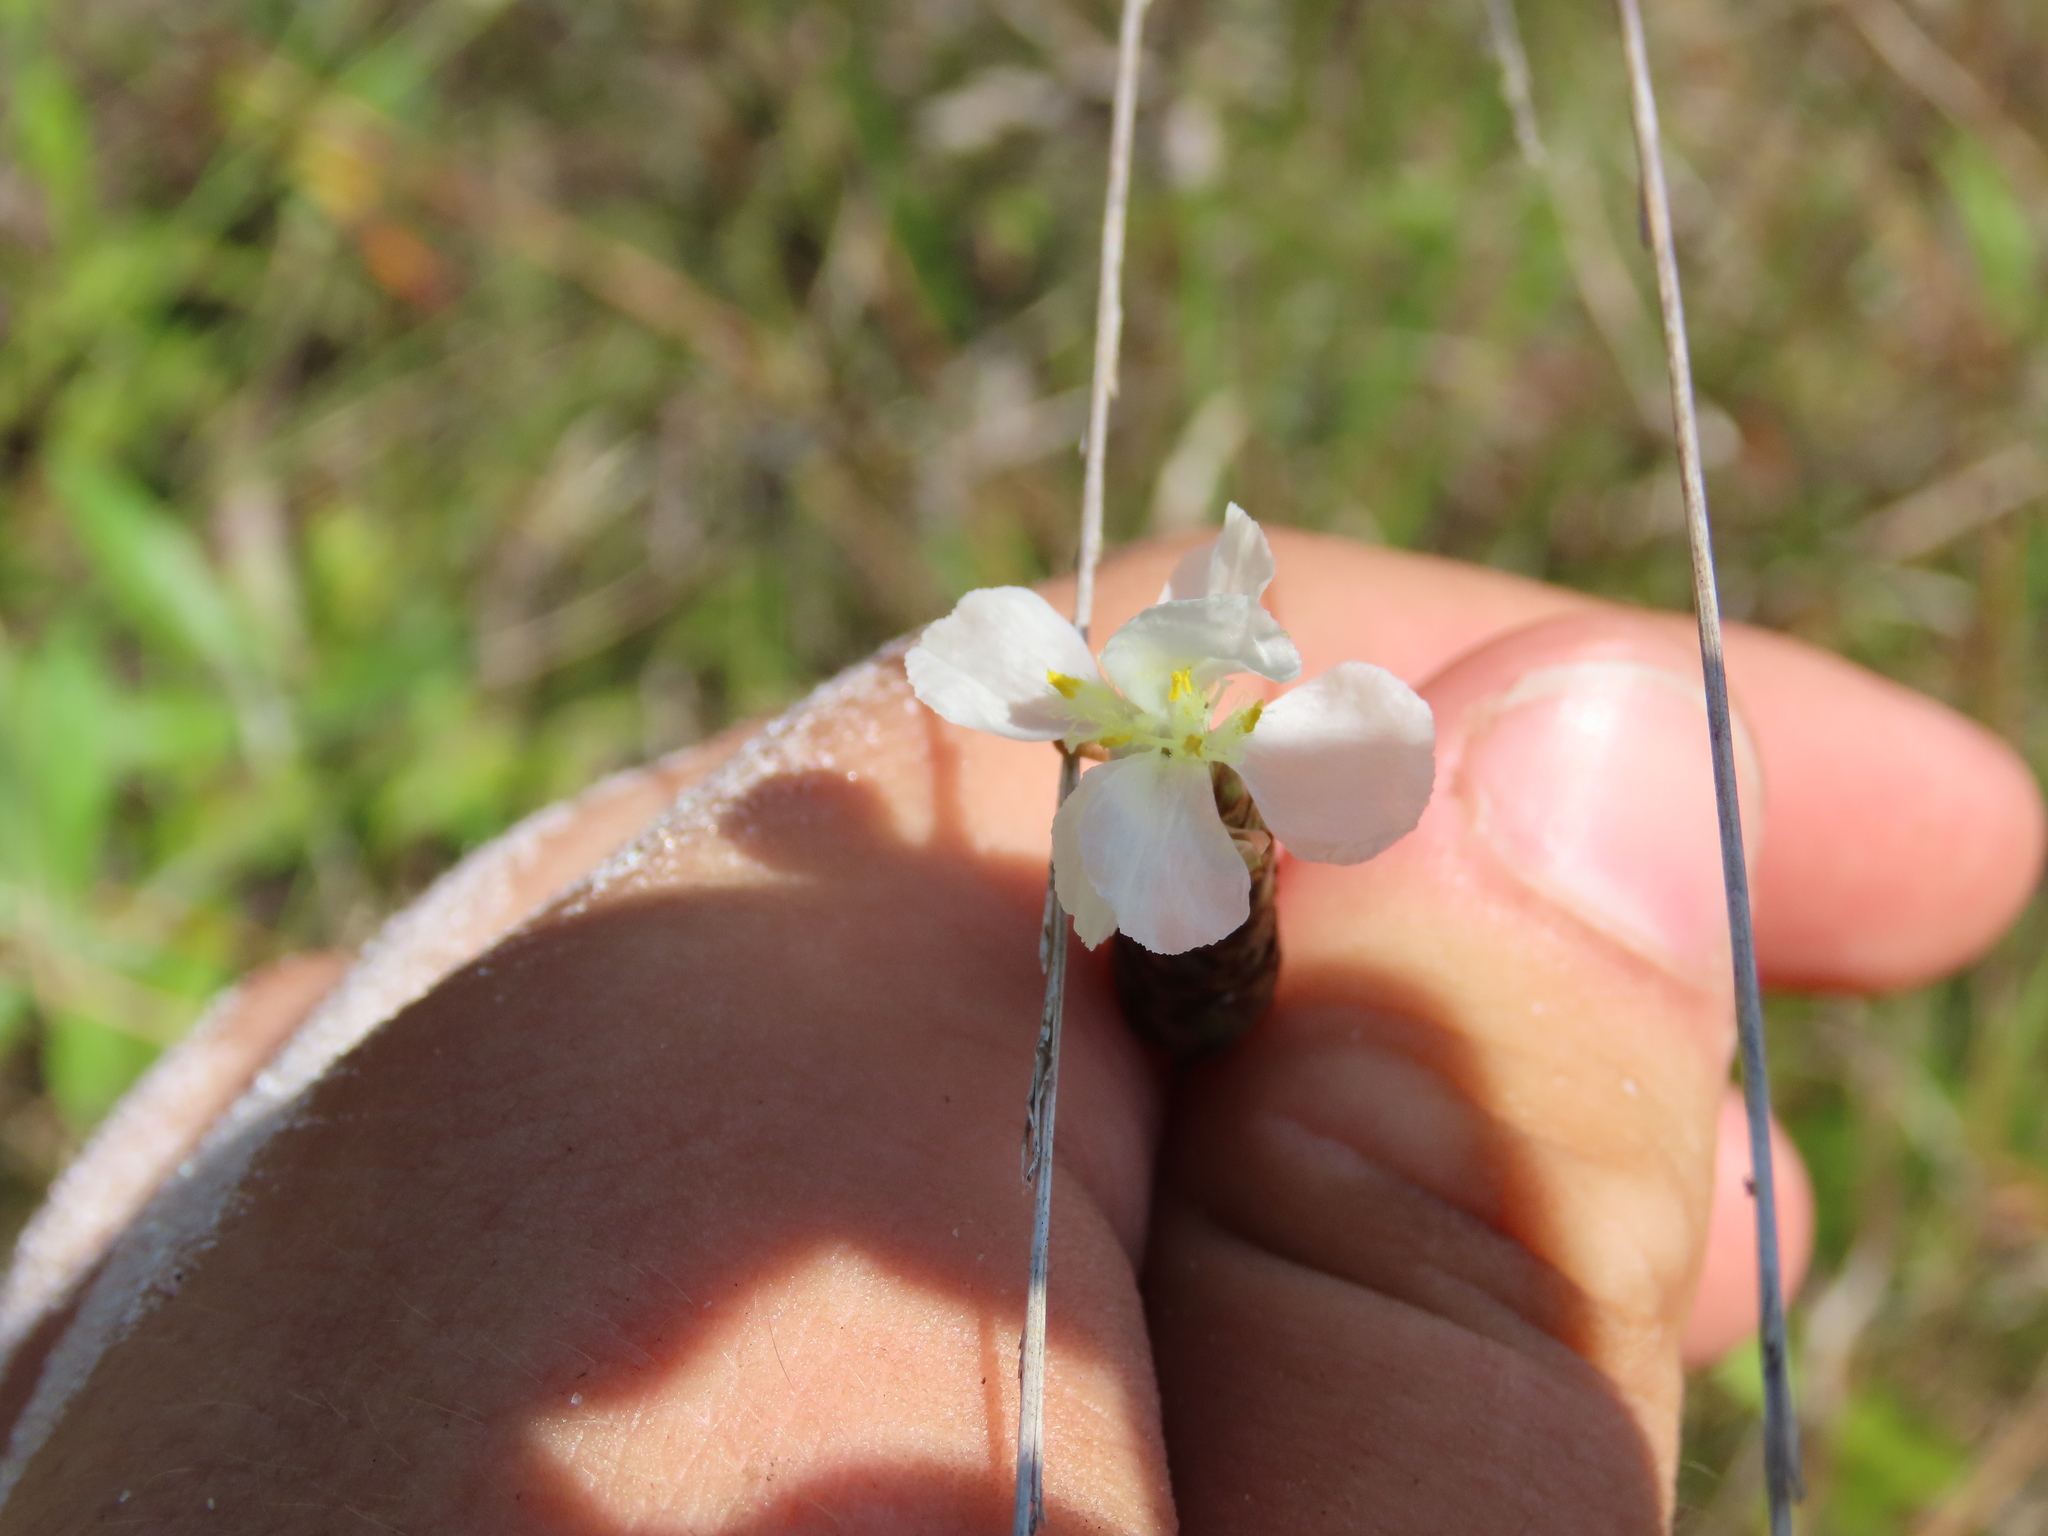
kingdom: Plantae
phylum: Tracheophyta
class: Liliopsida
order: Poales
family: Xyridaceae
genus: Xyris
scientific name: Xyris caroliniana
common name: Carolina yellow-eyed-grass
